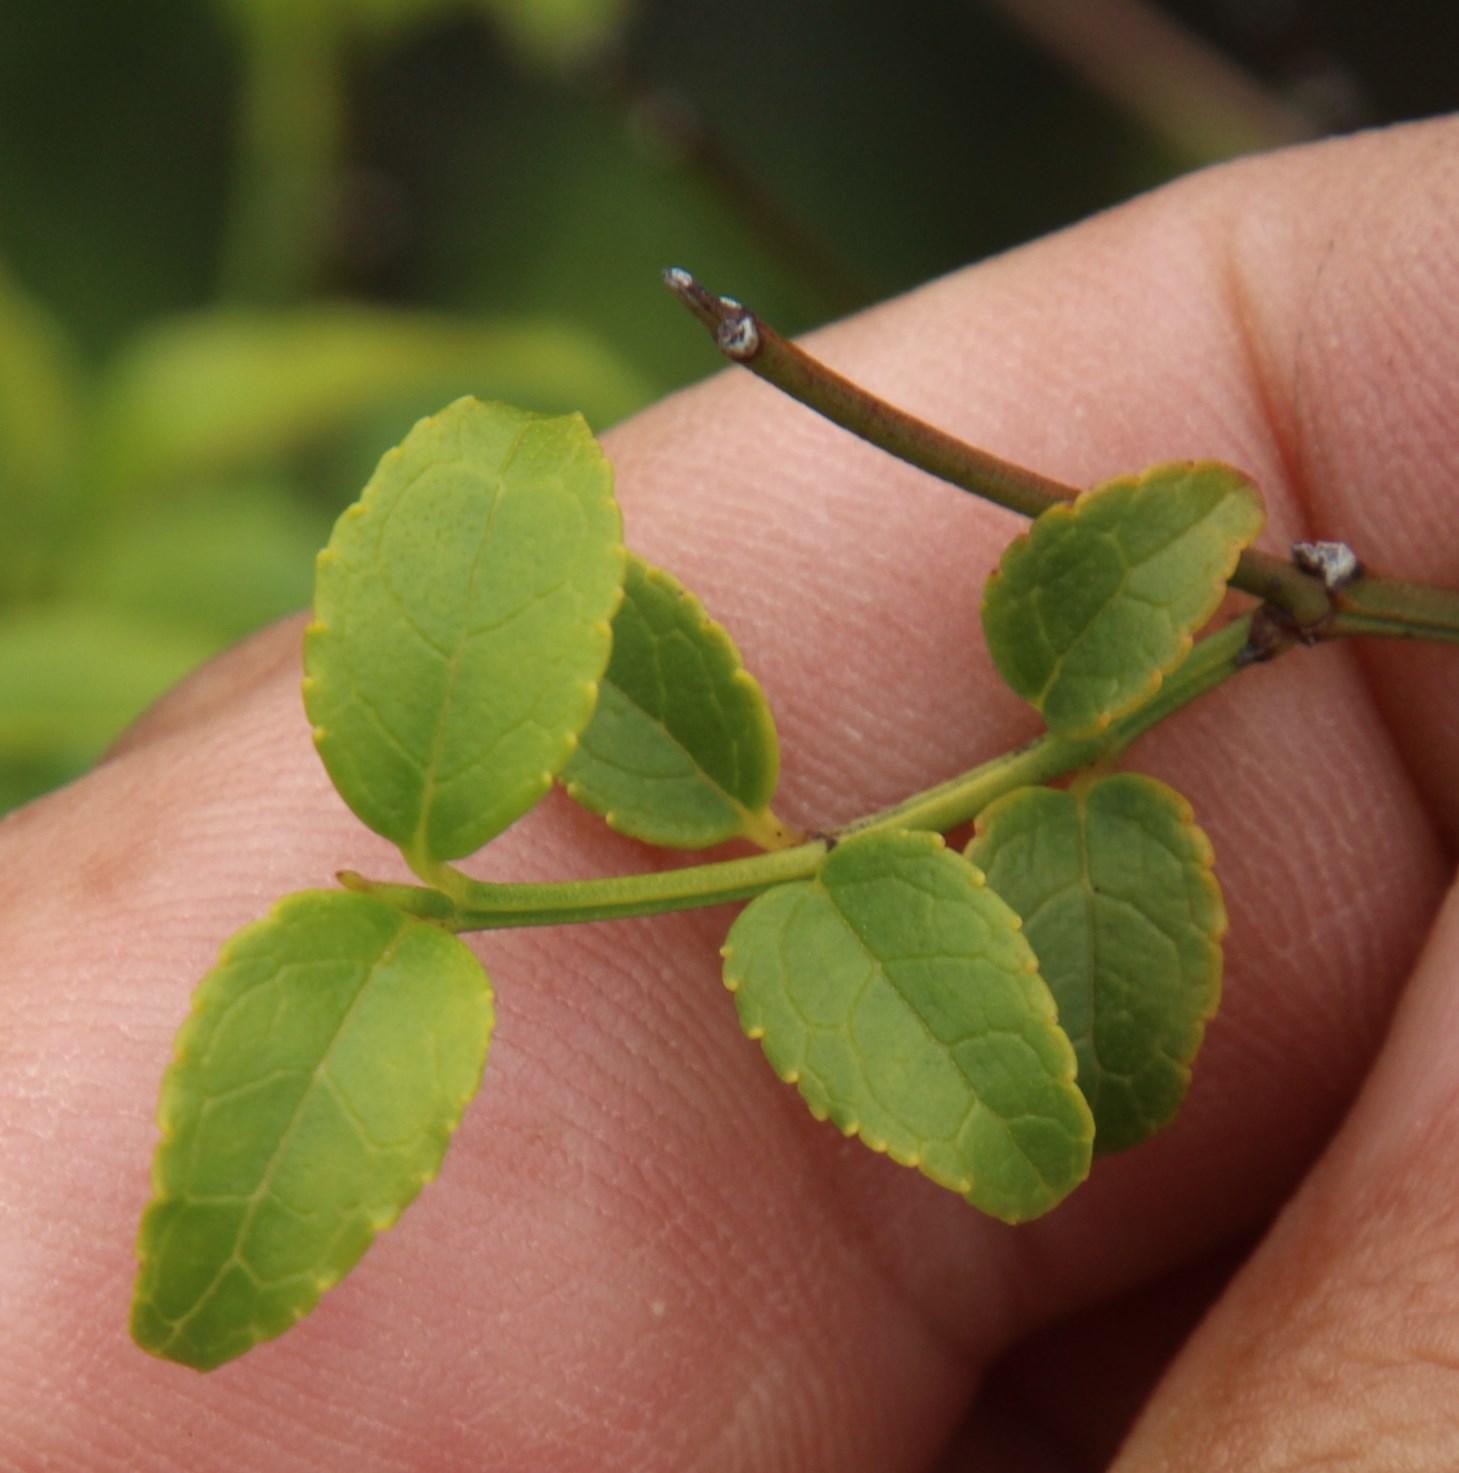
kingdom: Plantae
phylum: Tracheophyta
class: Magnoliopsida
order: Lamiales
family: Stilbaceae
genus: Halleria
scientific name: Halleria lucida
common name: Tree fuschia
